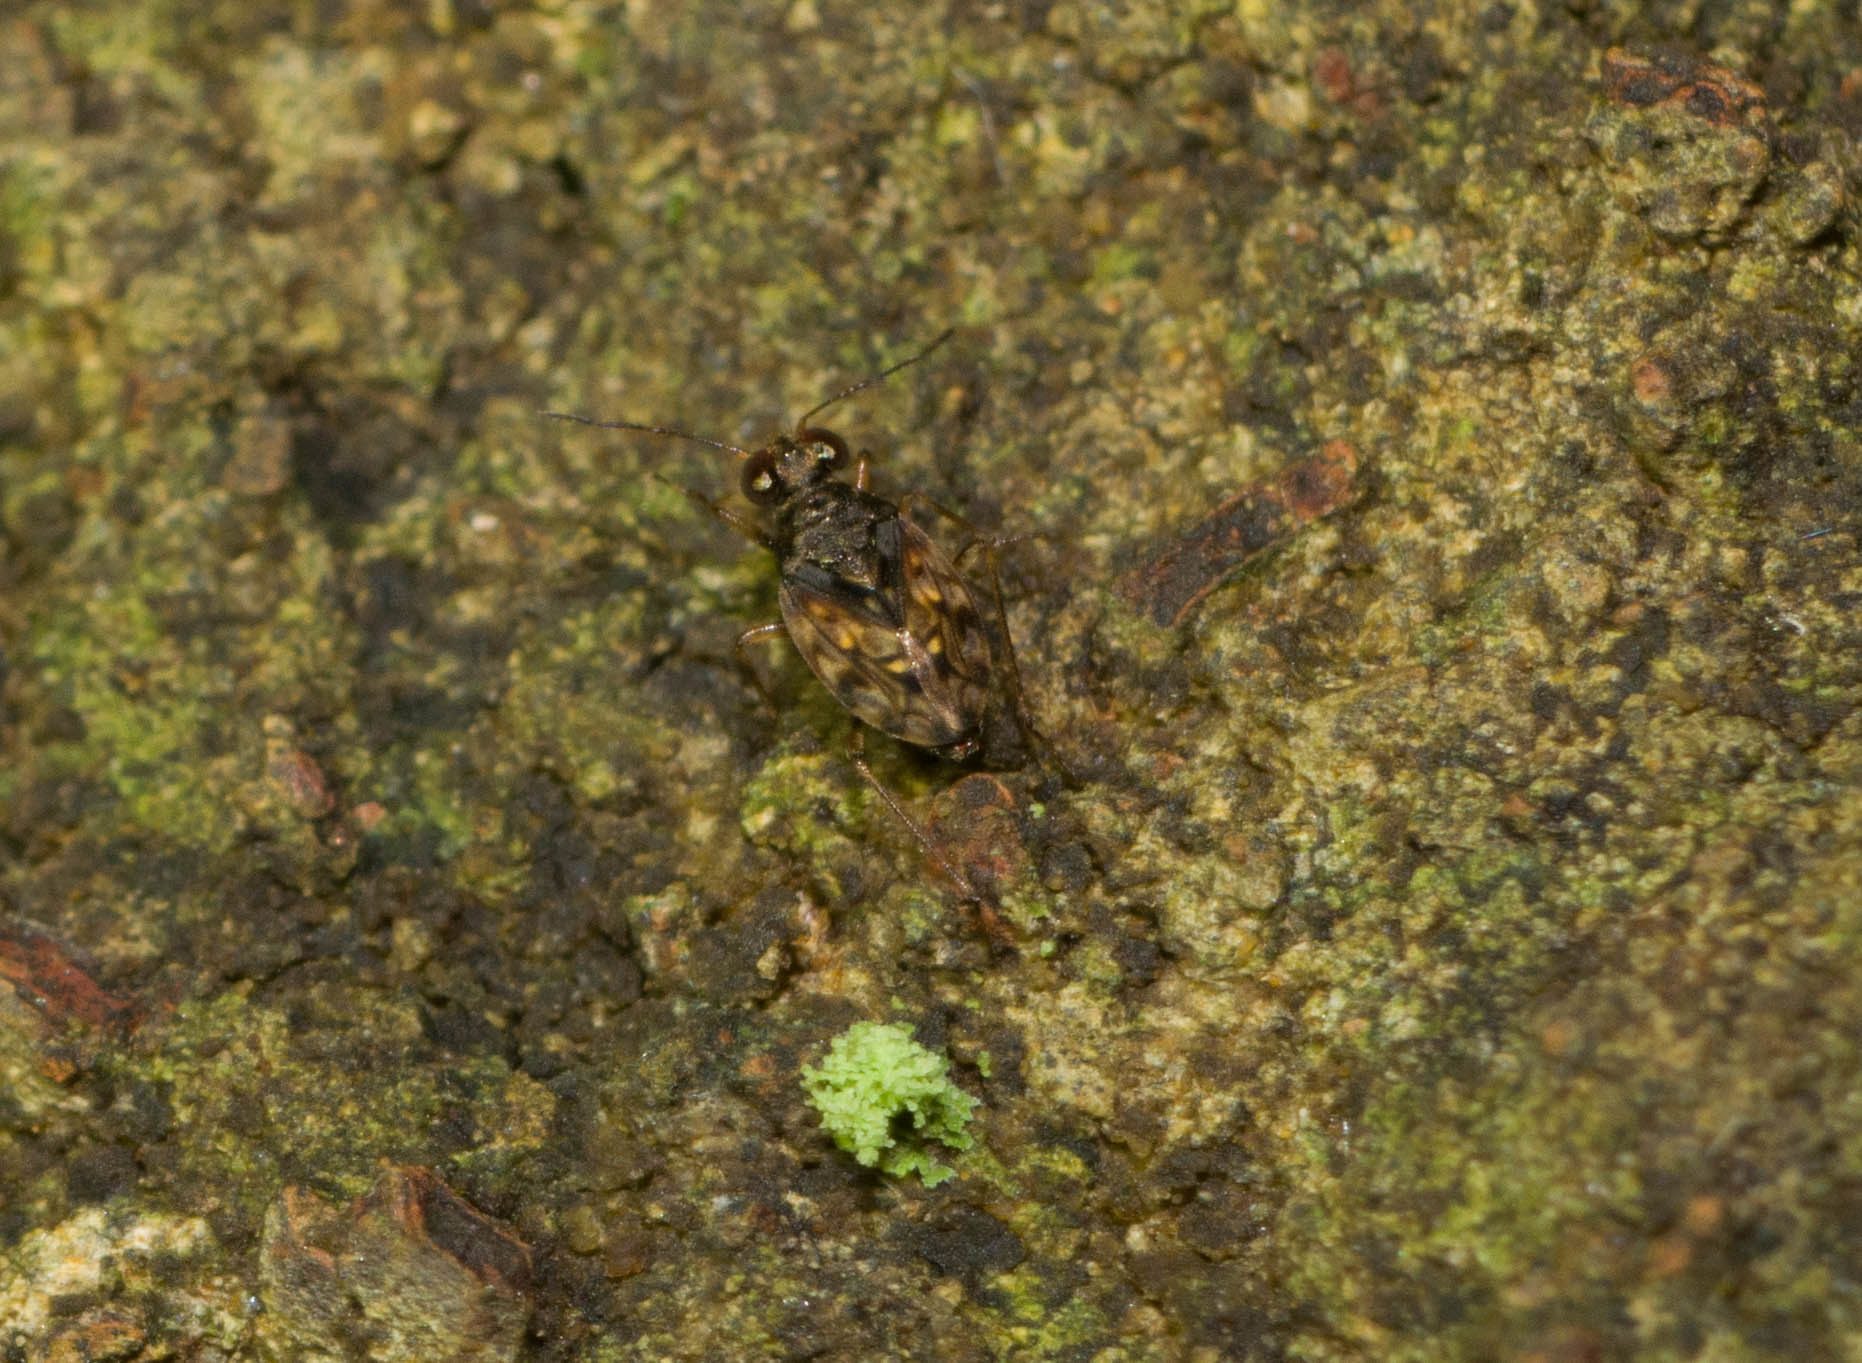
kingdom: Animalia
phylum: Arthropoda
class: Insecta
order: Hemiptera
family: Saldidae
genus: Saldula
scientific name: Saldula
